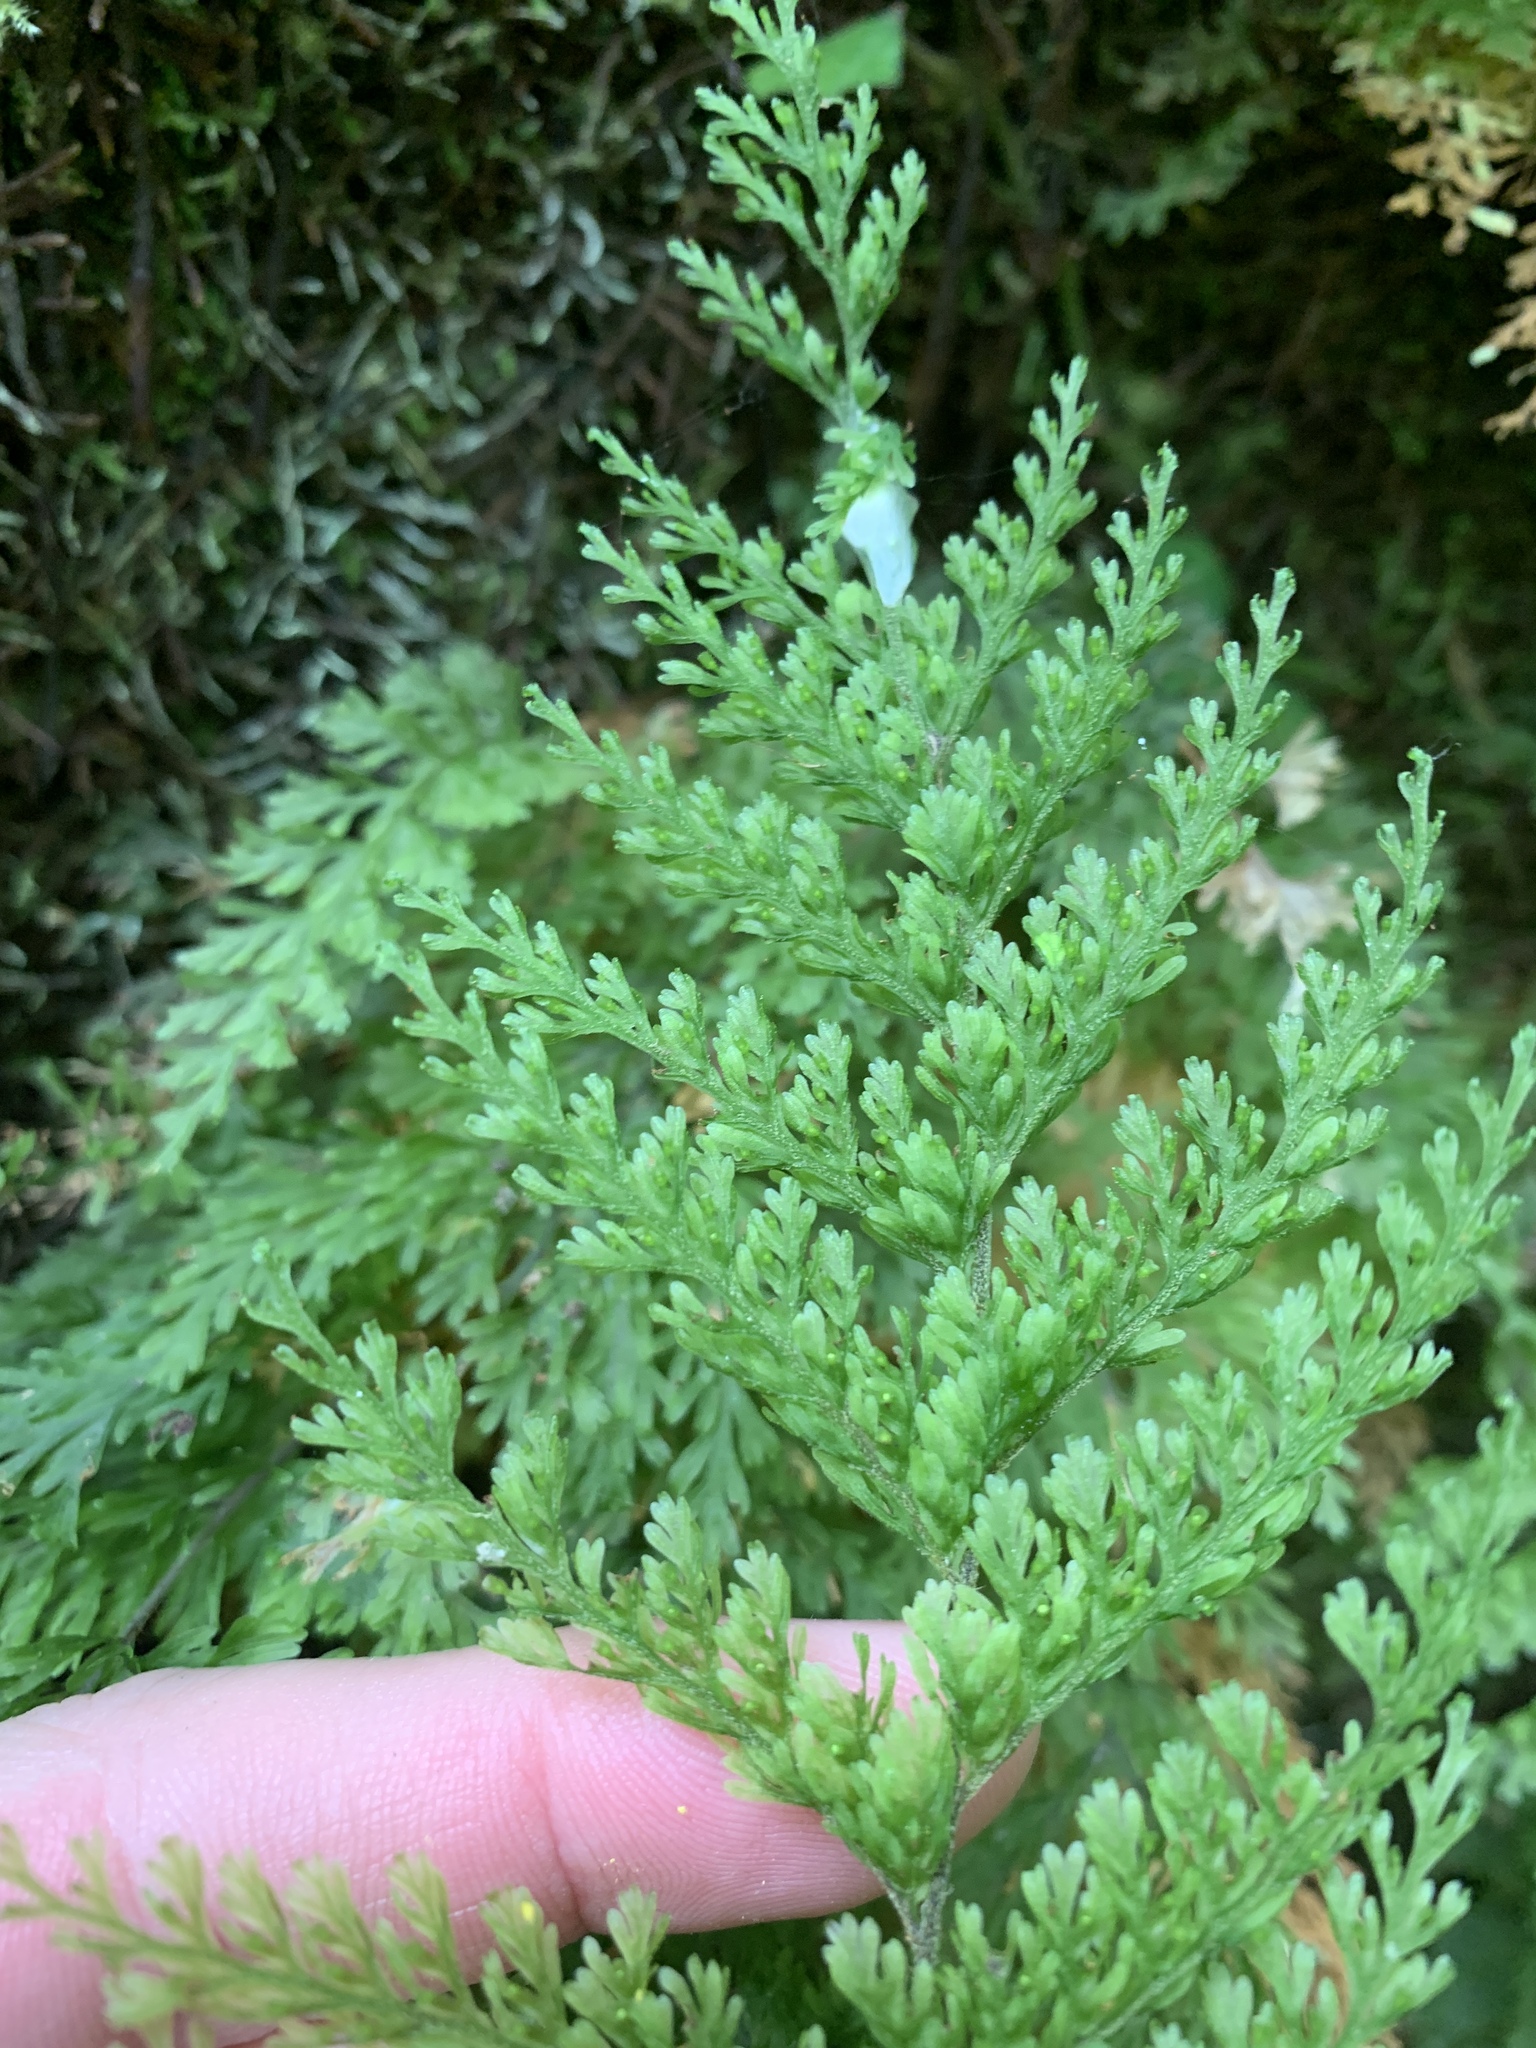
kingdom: Plantae
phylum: Tracheophyta
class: Polypodiopsida
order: Hymenophyllales
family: Hymenophyllaceae
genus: Callistopteris
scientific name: Callistopteris apiifolia
